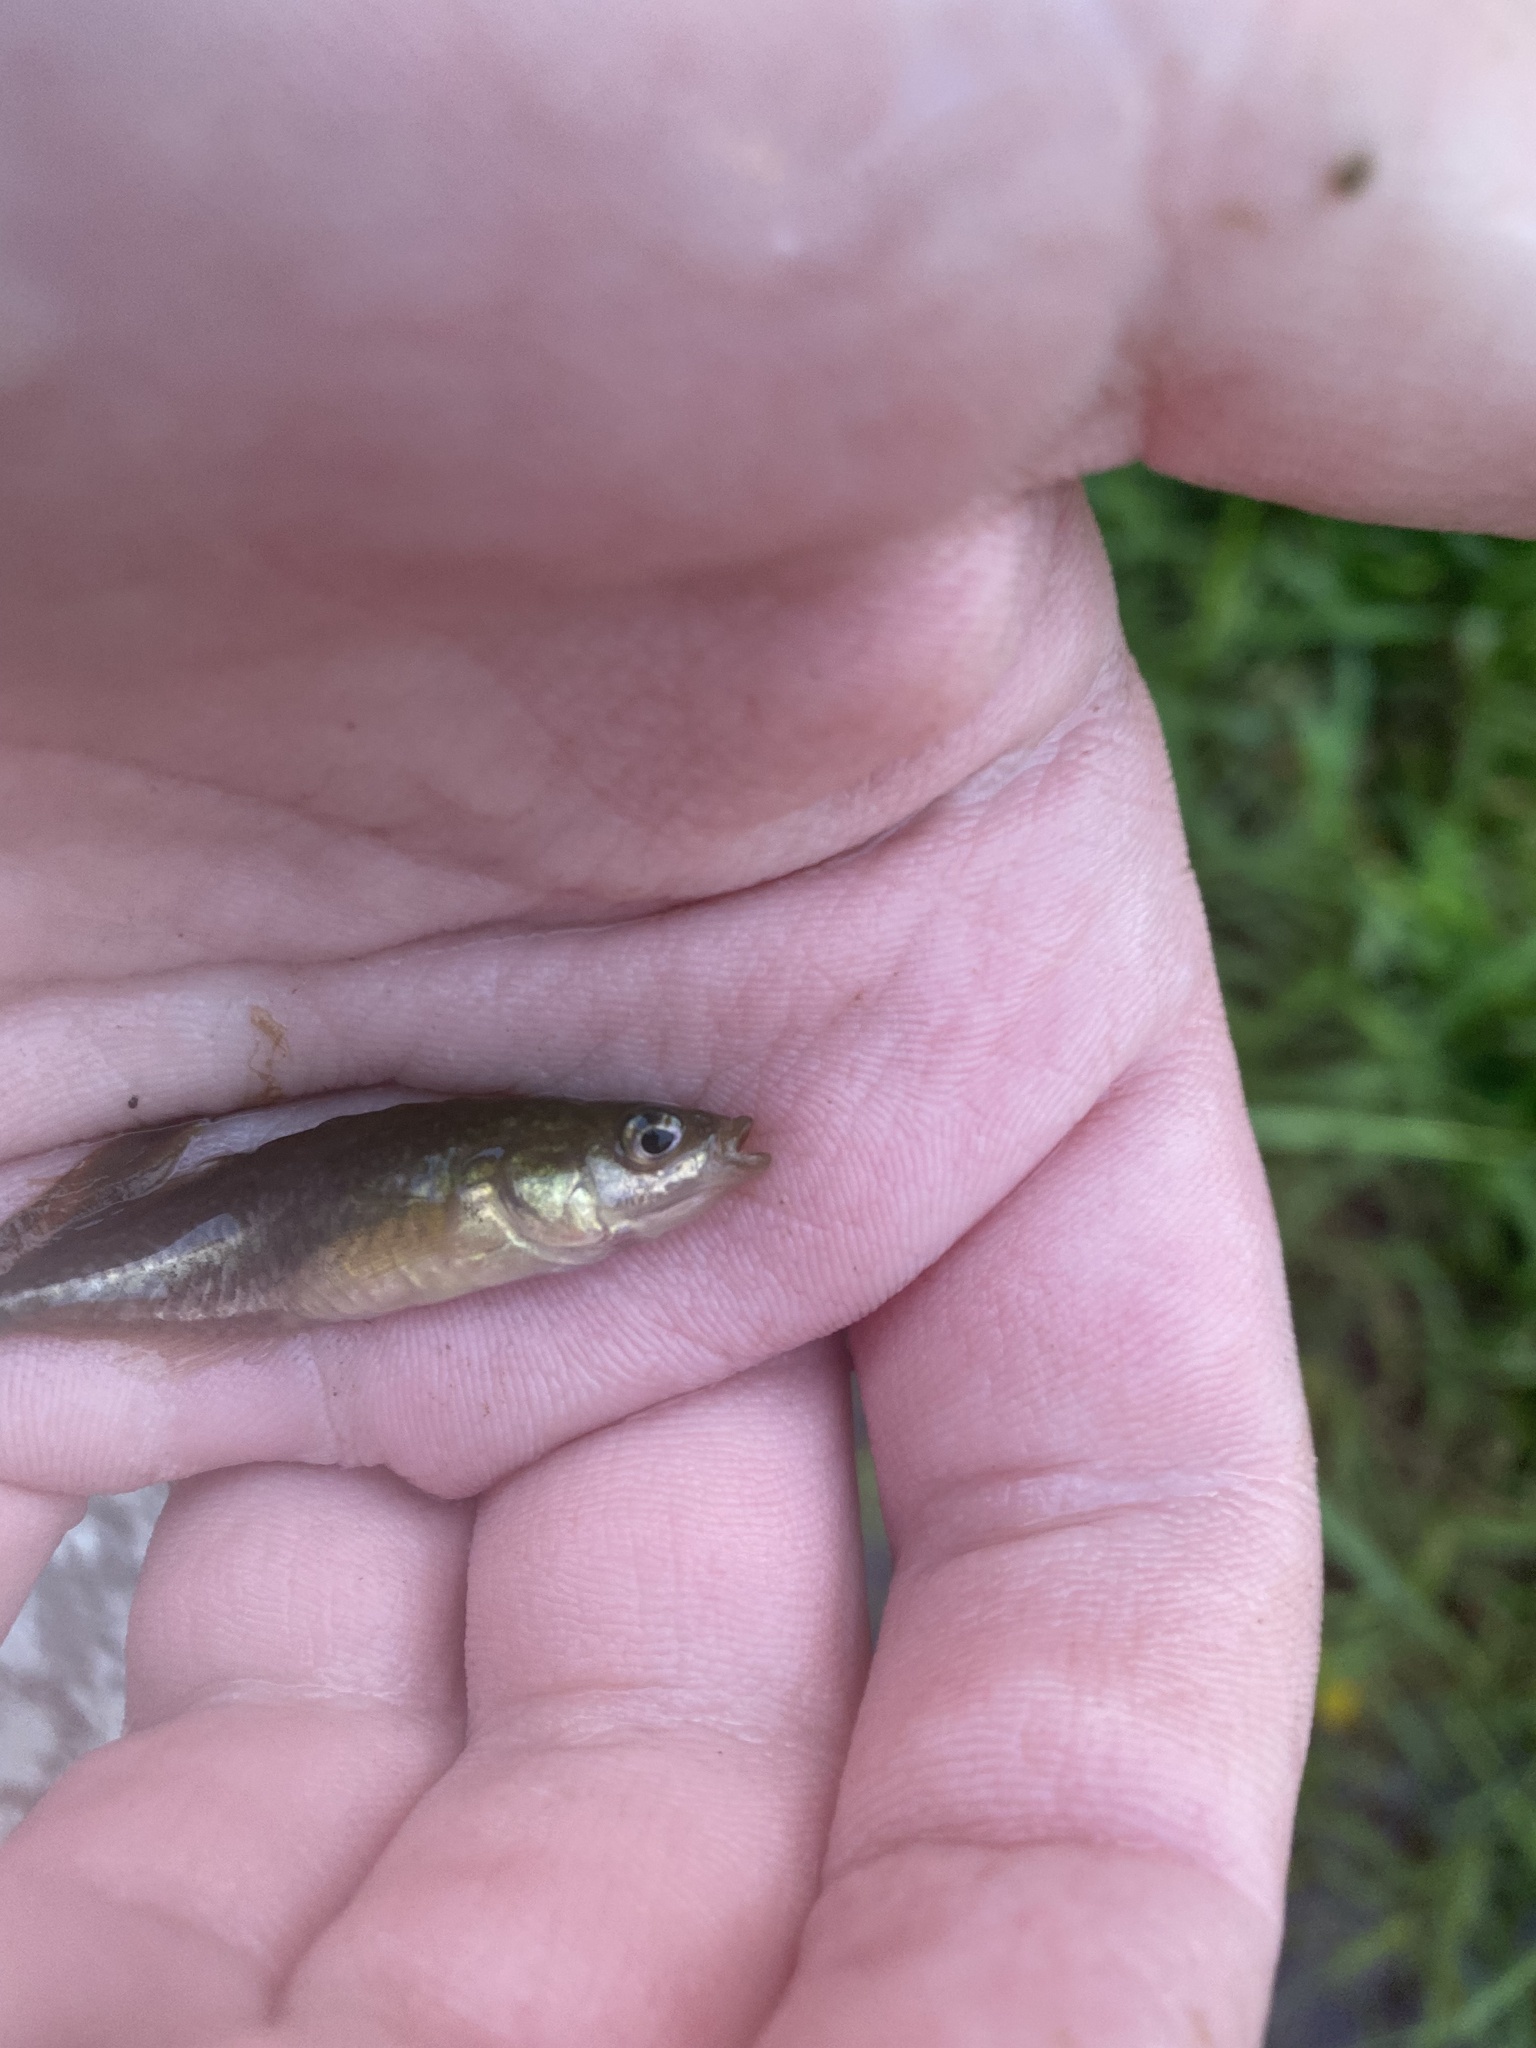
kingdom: Animalia
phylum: Chordata
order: Gasterosteiformes
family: Gasterosteidae
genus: Culaea
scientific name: Culaea inconstans
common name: Brook stickleback
